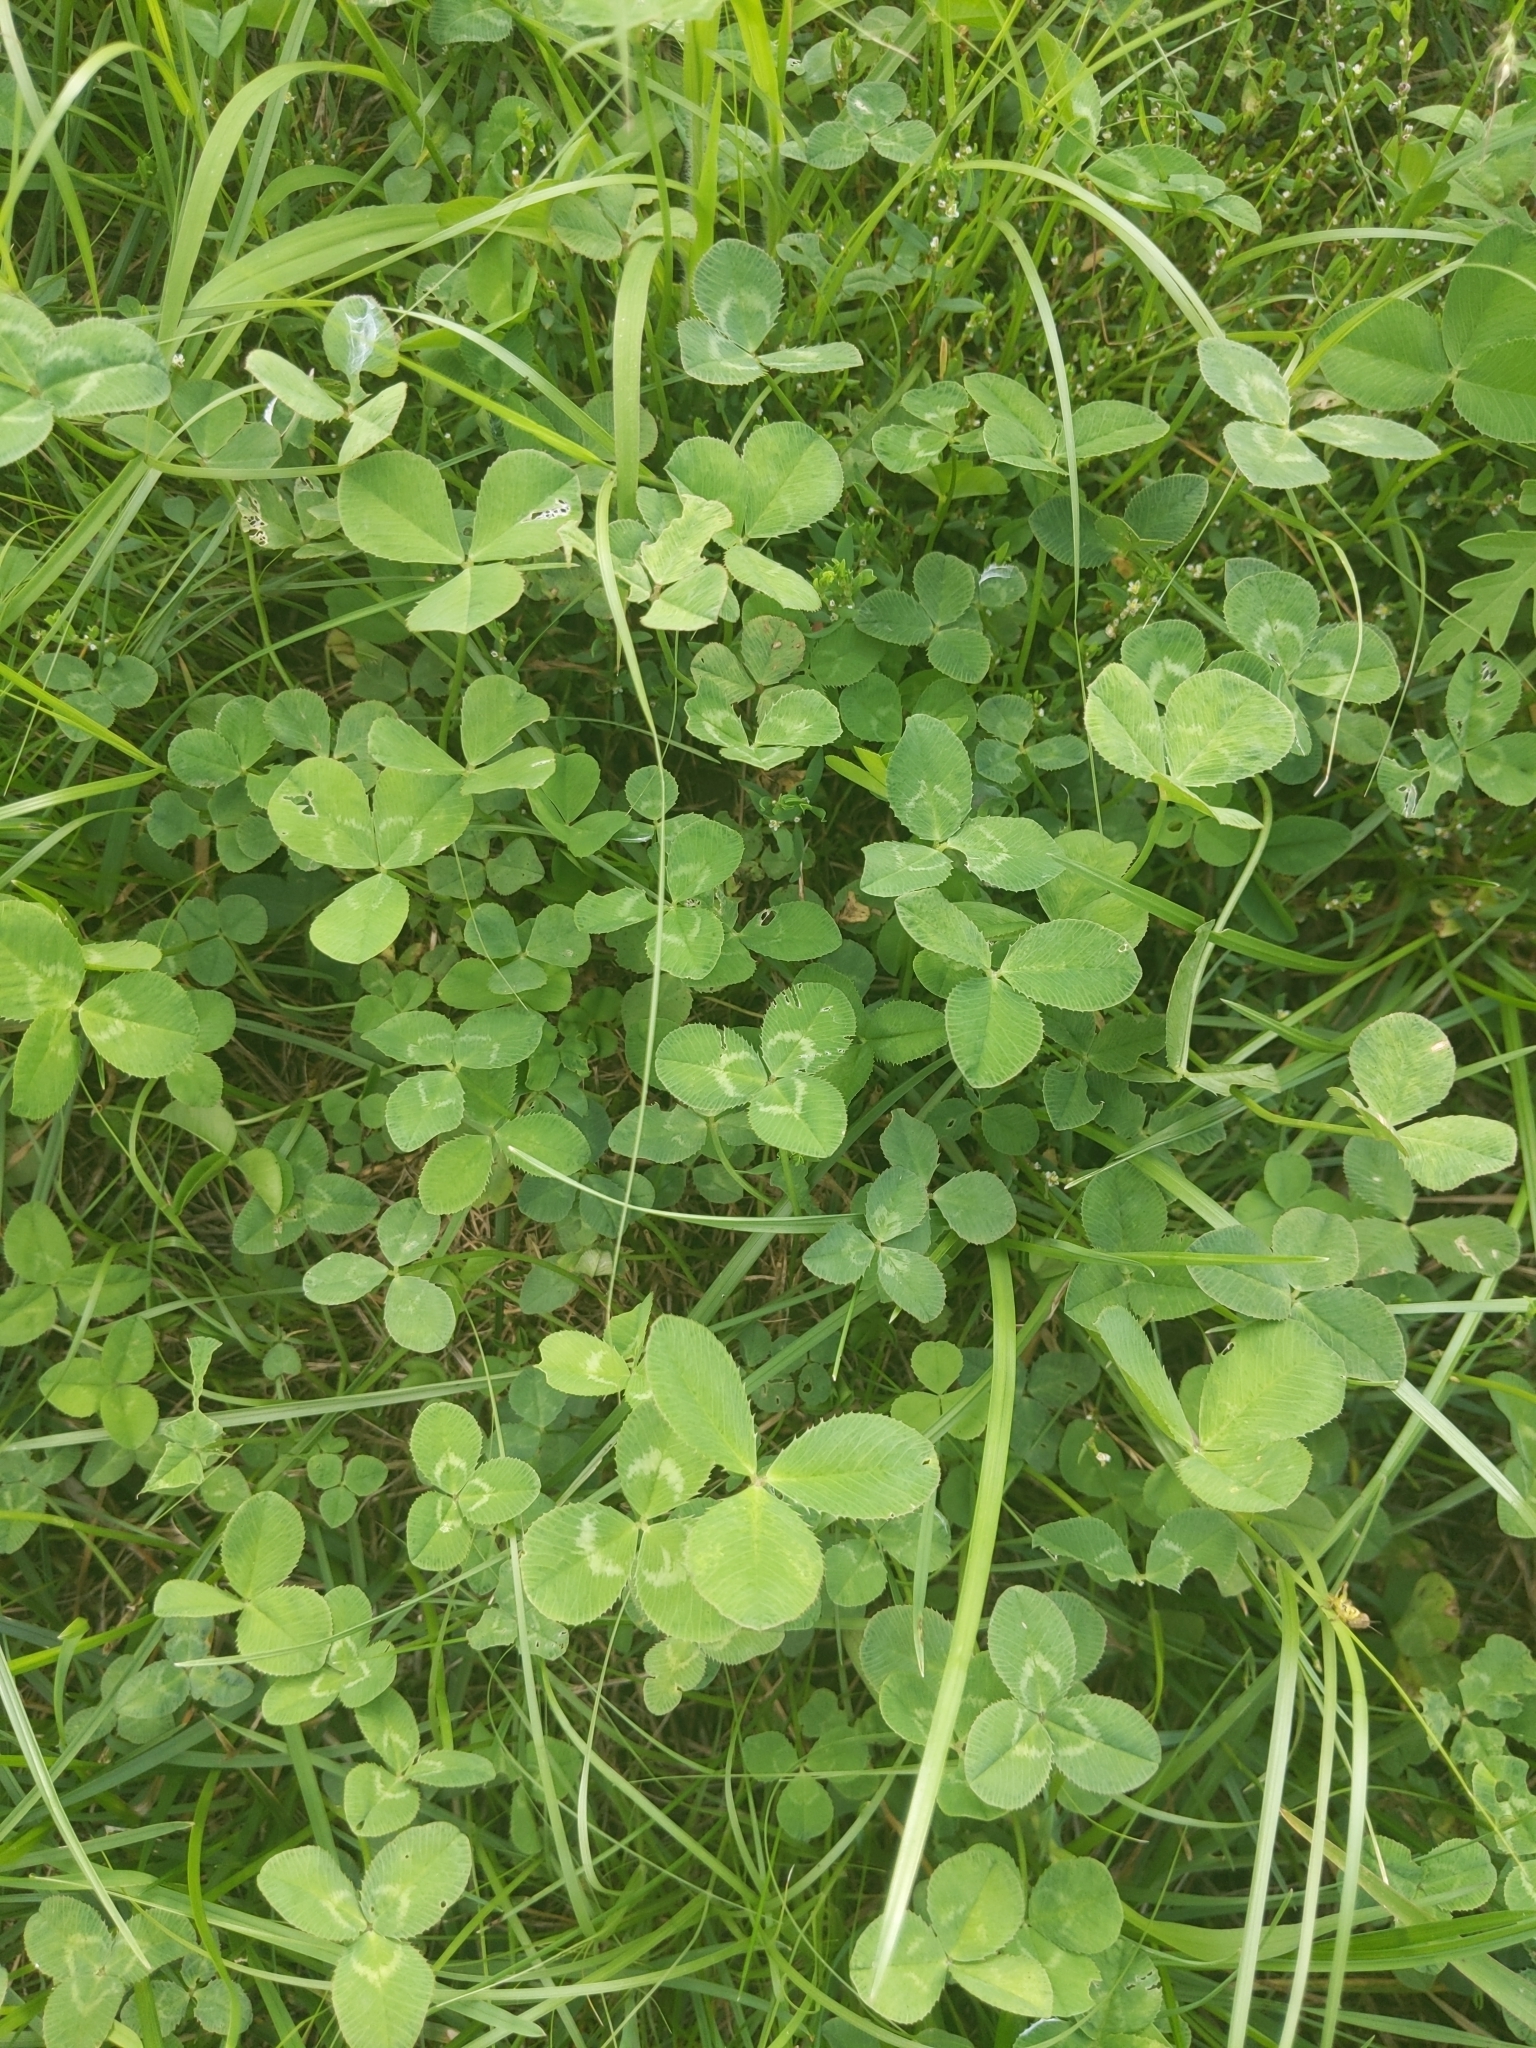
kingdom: Plantae
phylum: Tracheophyta
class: Magnoliopsida
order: Fabales
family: Fabaceae
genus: Trifolium
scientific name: Trifolium repens
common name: White clover
